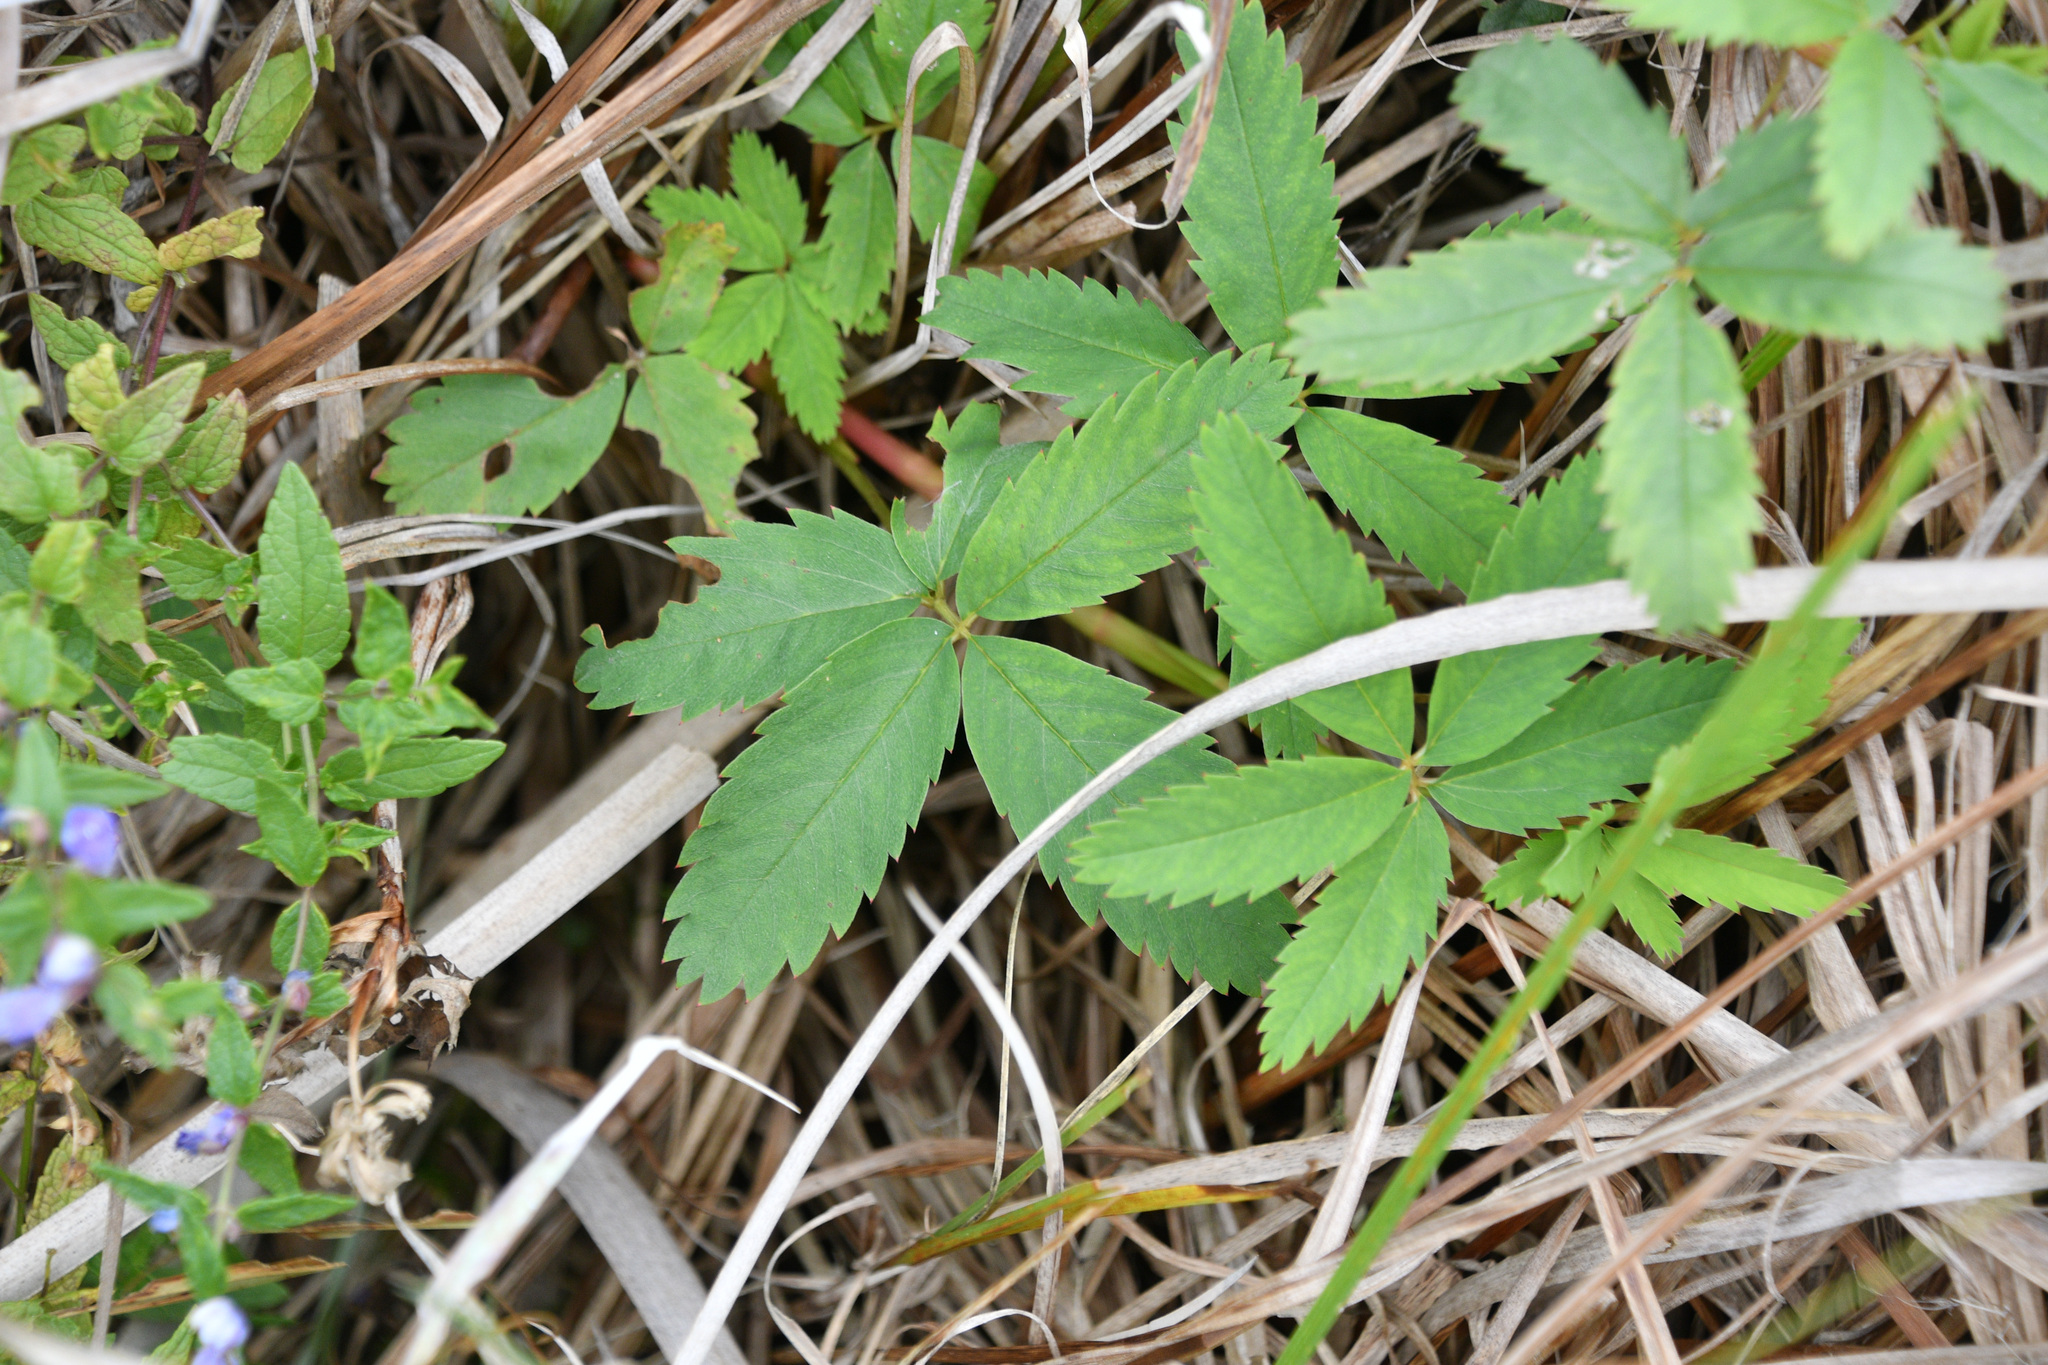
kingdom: Plantae
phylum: Tracheophyta
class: Magnoliopsida
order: Rosales
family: Rosaceae
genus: Comarum
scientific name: Comarum palustre
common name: Marsh cinquefoil
